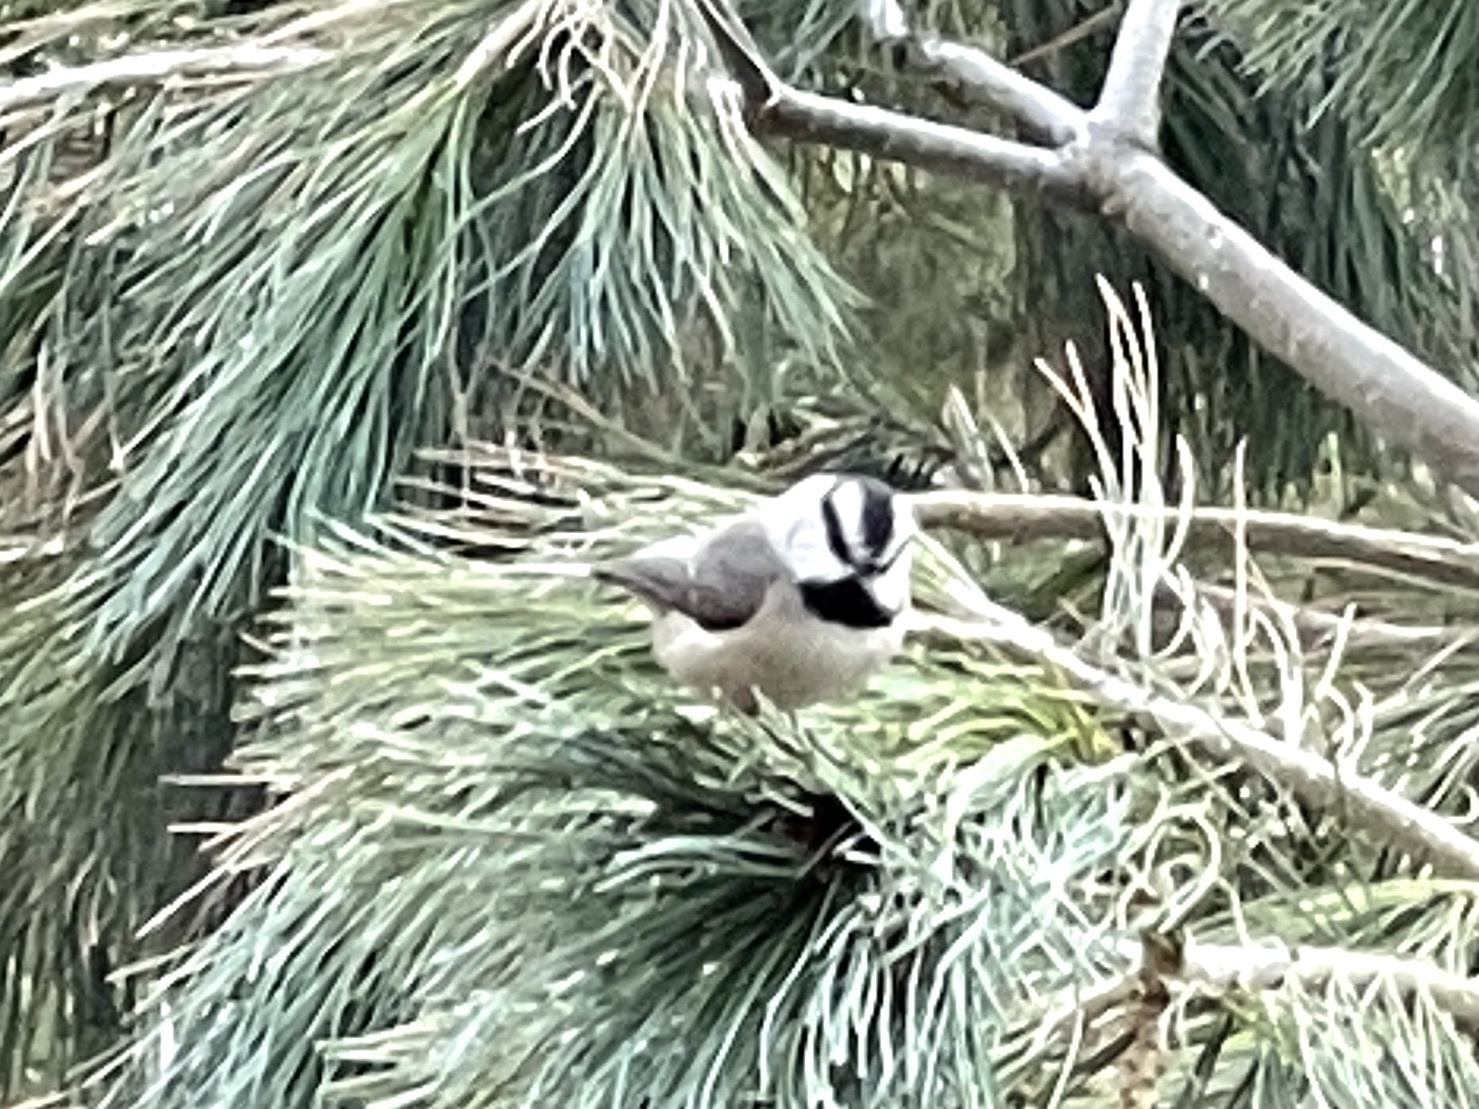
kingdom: Animalia
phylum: Chordata
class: Aves
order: Passeriformes
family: Paridae
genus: Poecile
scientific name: Poecile gambeli
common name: Mountain chickadee
